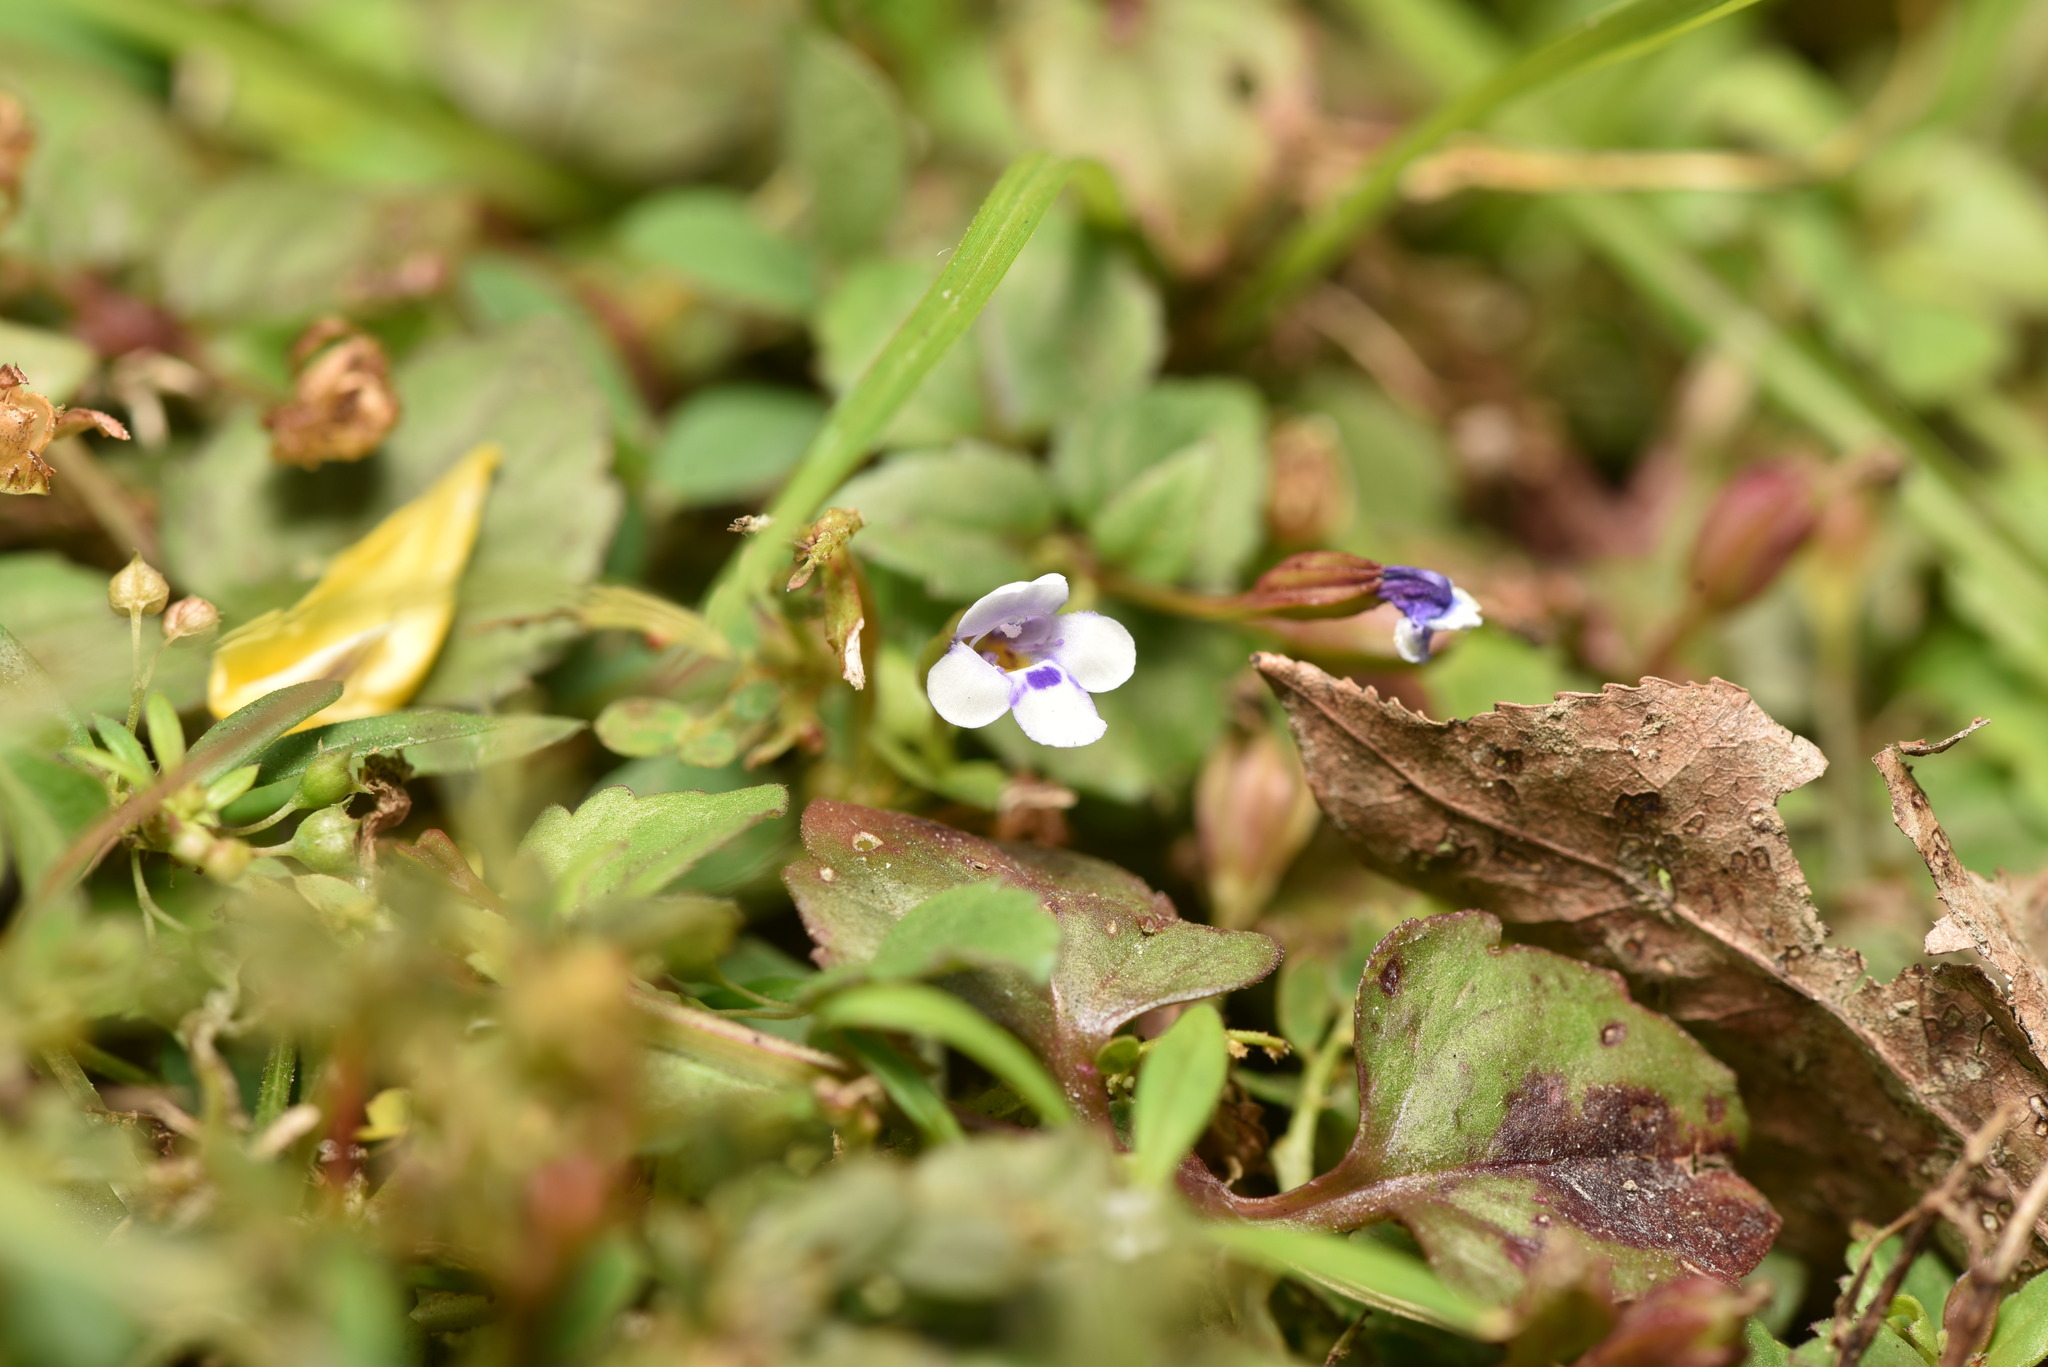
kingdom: Plantae
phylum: Tracheophyta
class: Magnoliopsida
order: Lamiales
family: Linderniaceae
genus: Torenia
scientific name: Torenia crustacea
